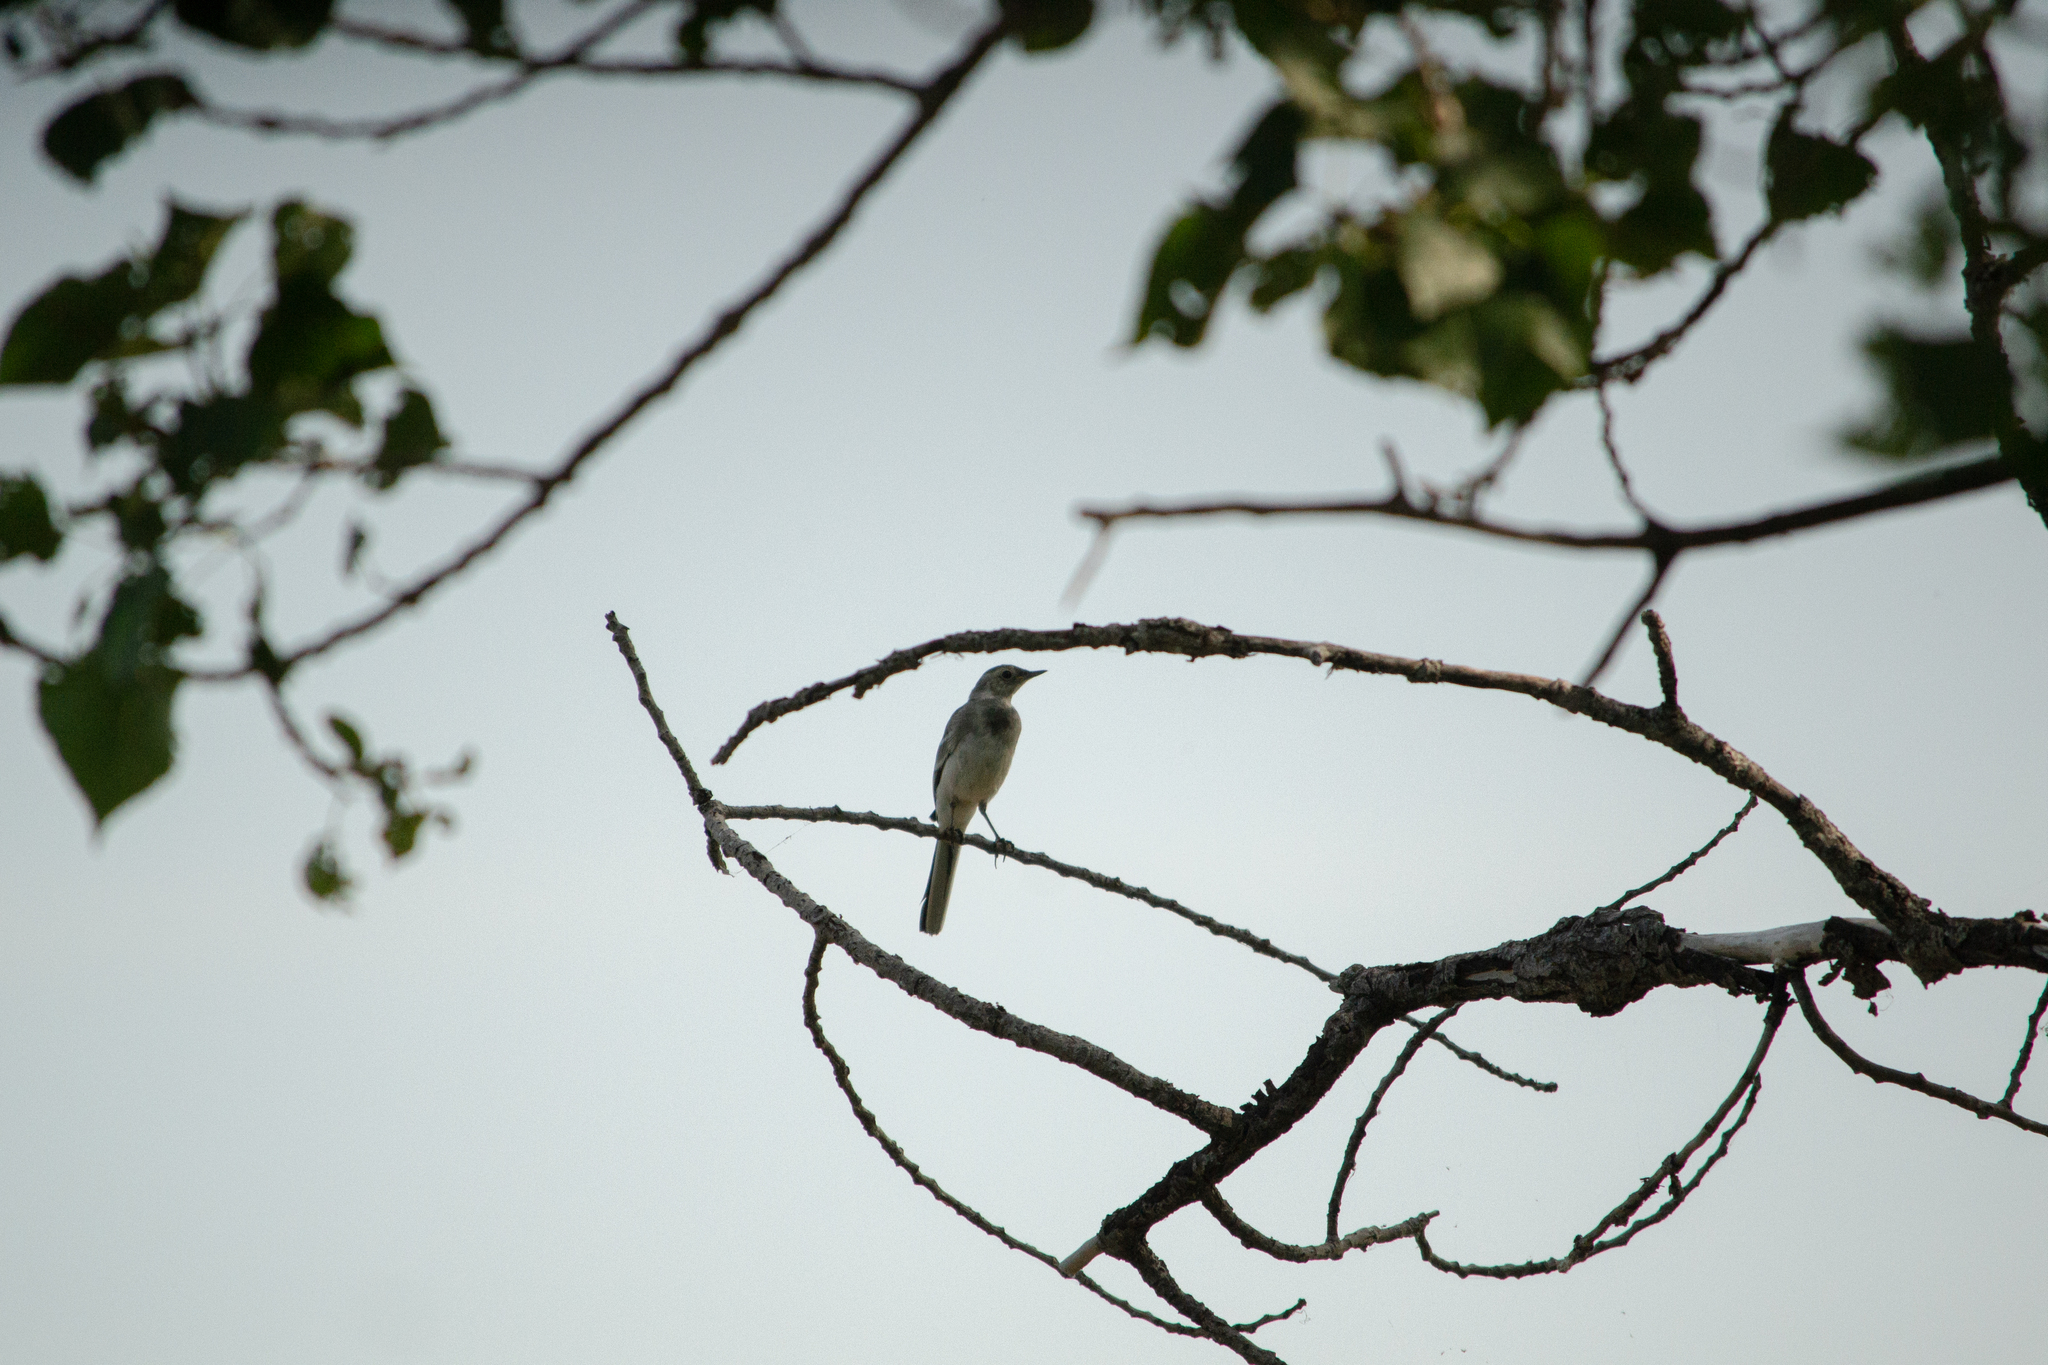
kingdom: Animalia
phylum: Chordata
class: Aves
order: Passeriformes
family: Motacillidae
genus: Motacilla
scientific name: Motacilla alba
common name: White wagtail
